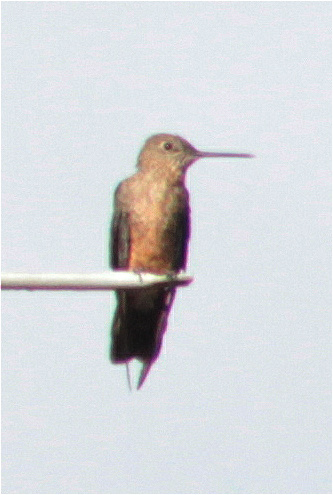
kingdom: Animalia
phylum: Chordata
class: Aves
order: Apodiformes
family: Trochilidae
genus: Patagona
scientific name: Patagona gigas
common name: Giant hummingbird
